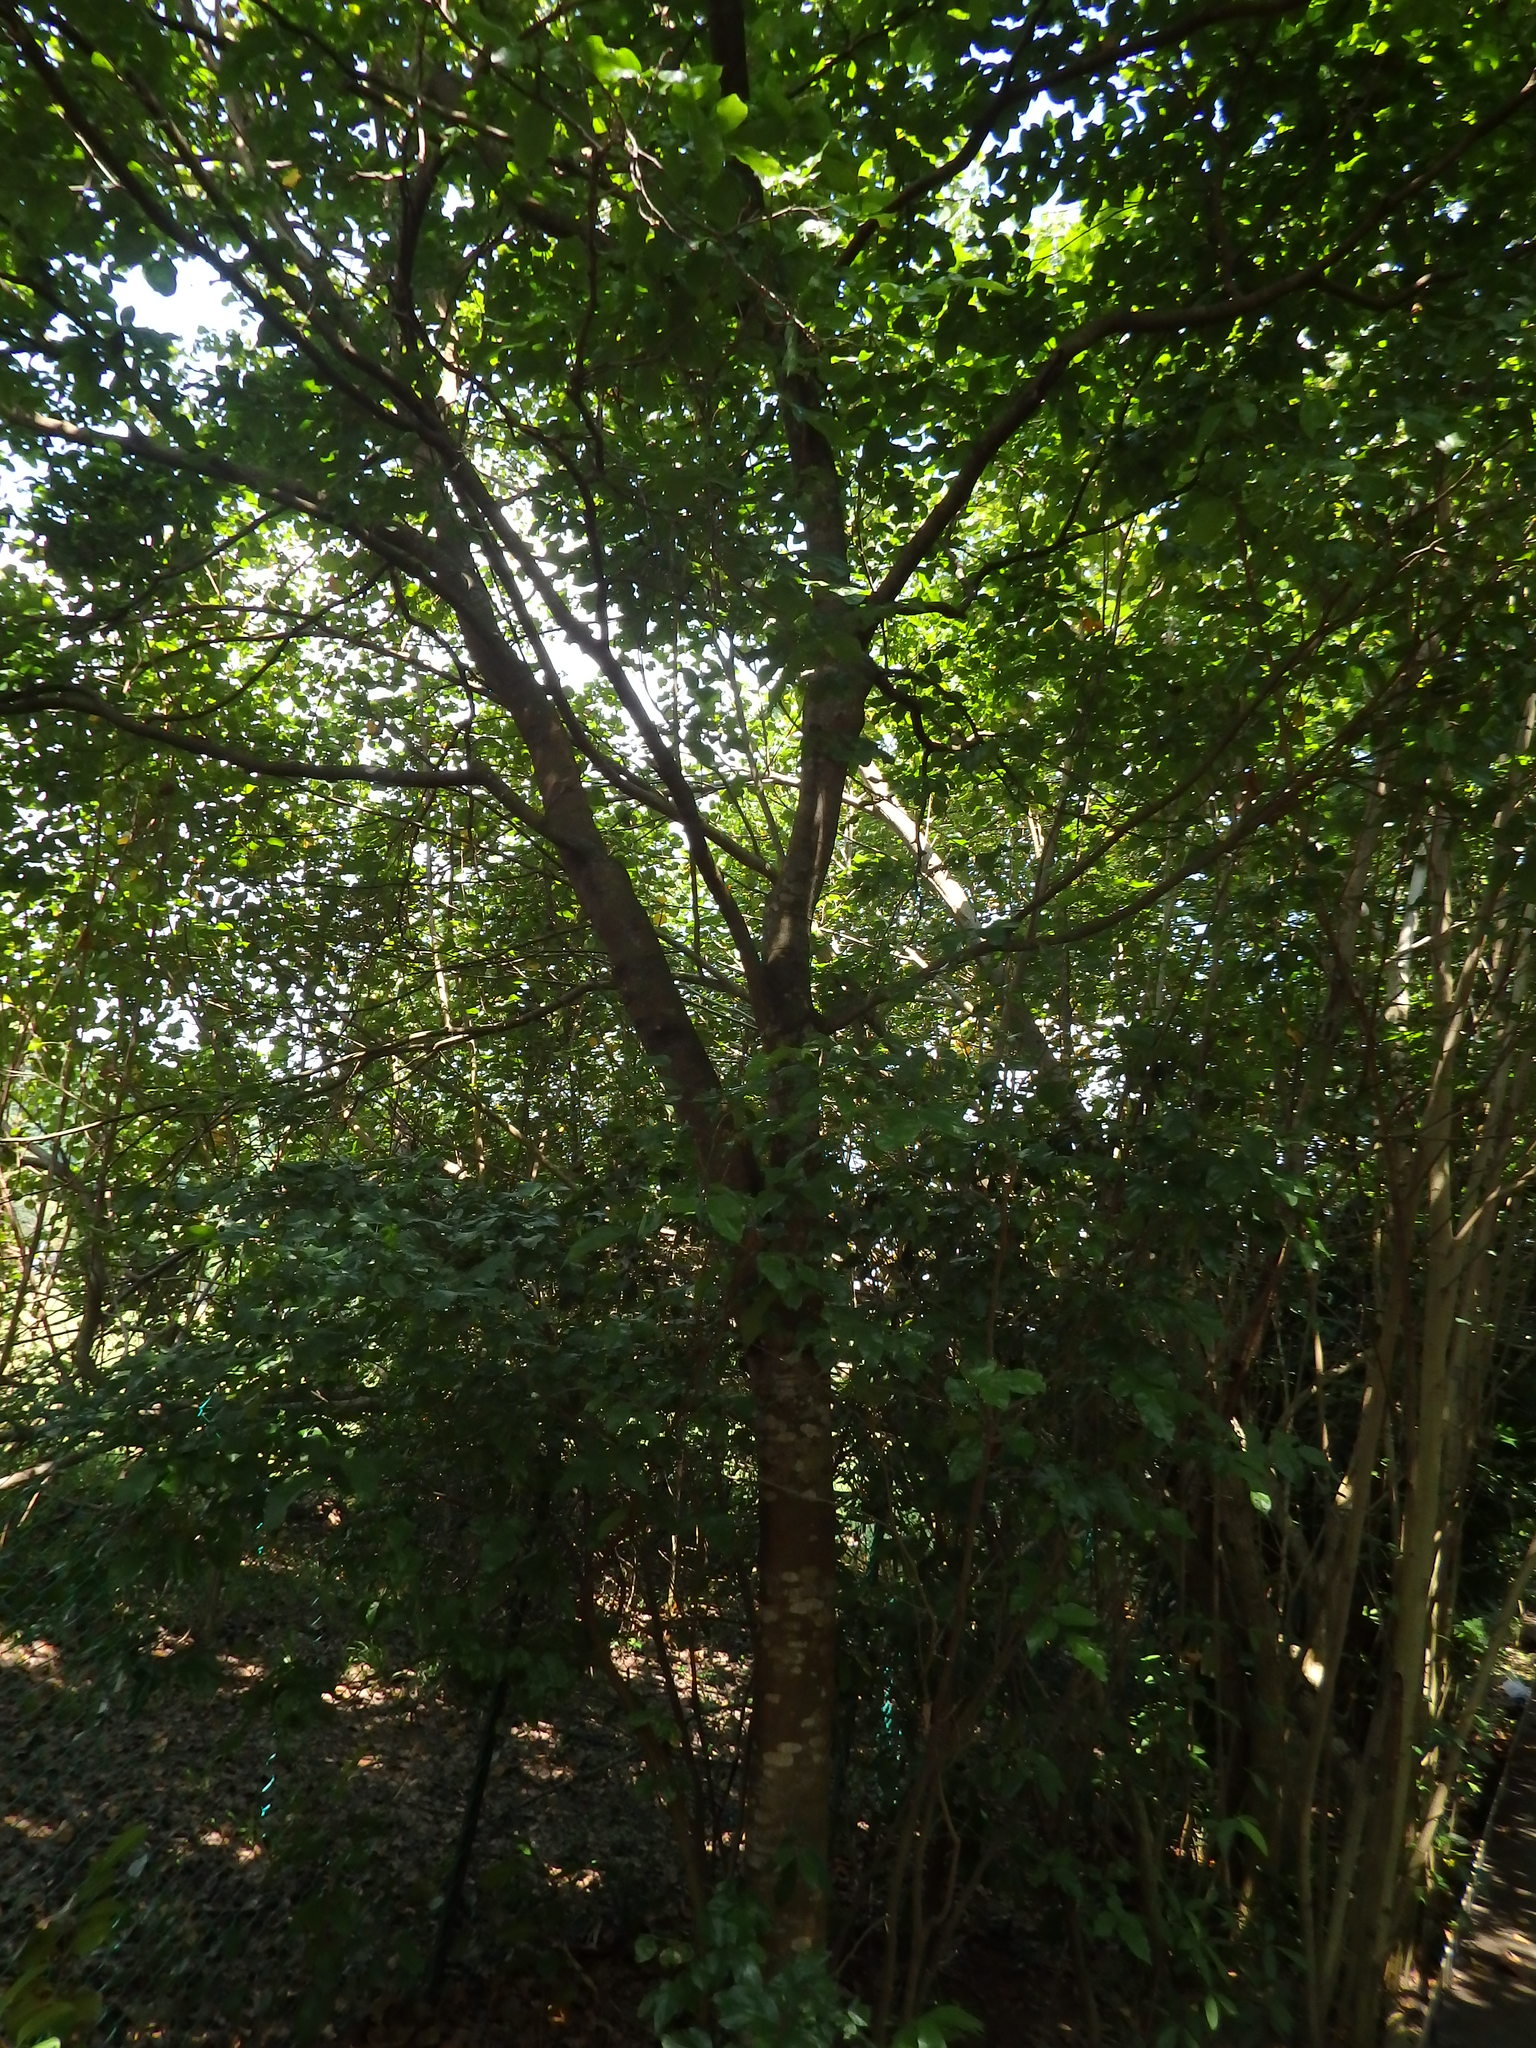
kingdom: Plantae
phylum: Tracheophyta
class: Magnoliopsida
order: Fabales
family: Fabaceae
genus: Cynometra
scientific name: Cynometra ramiflora
